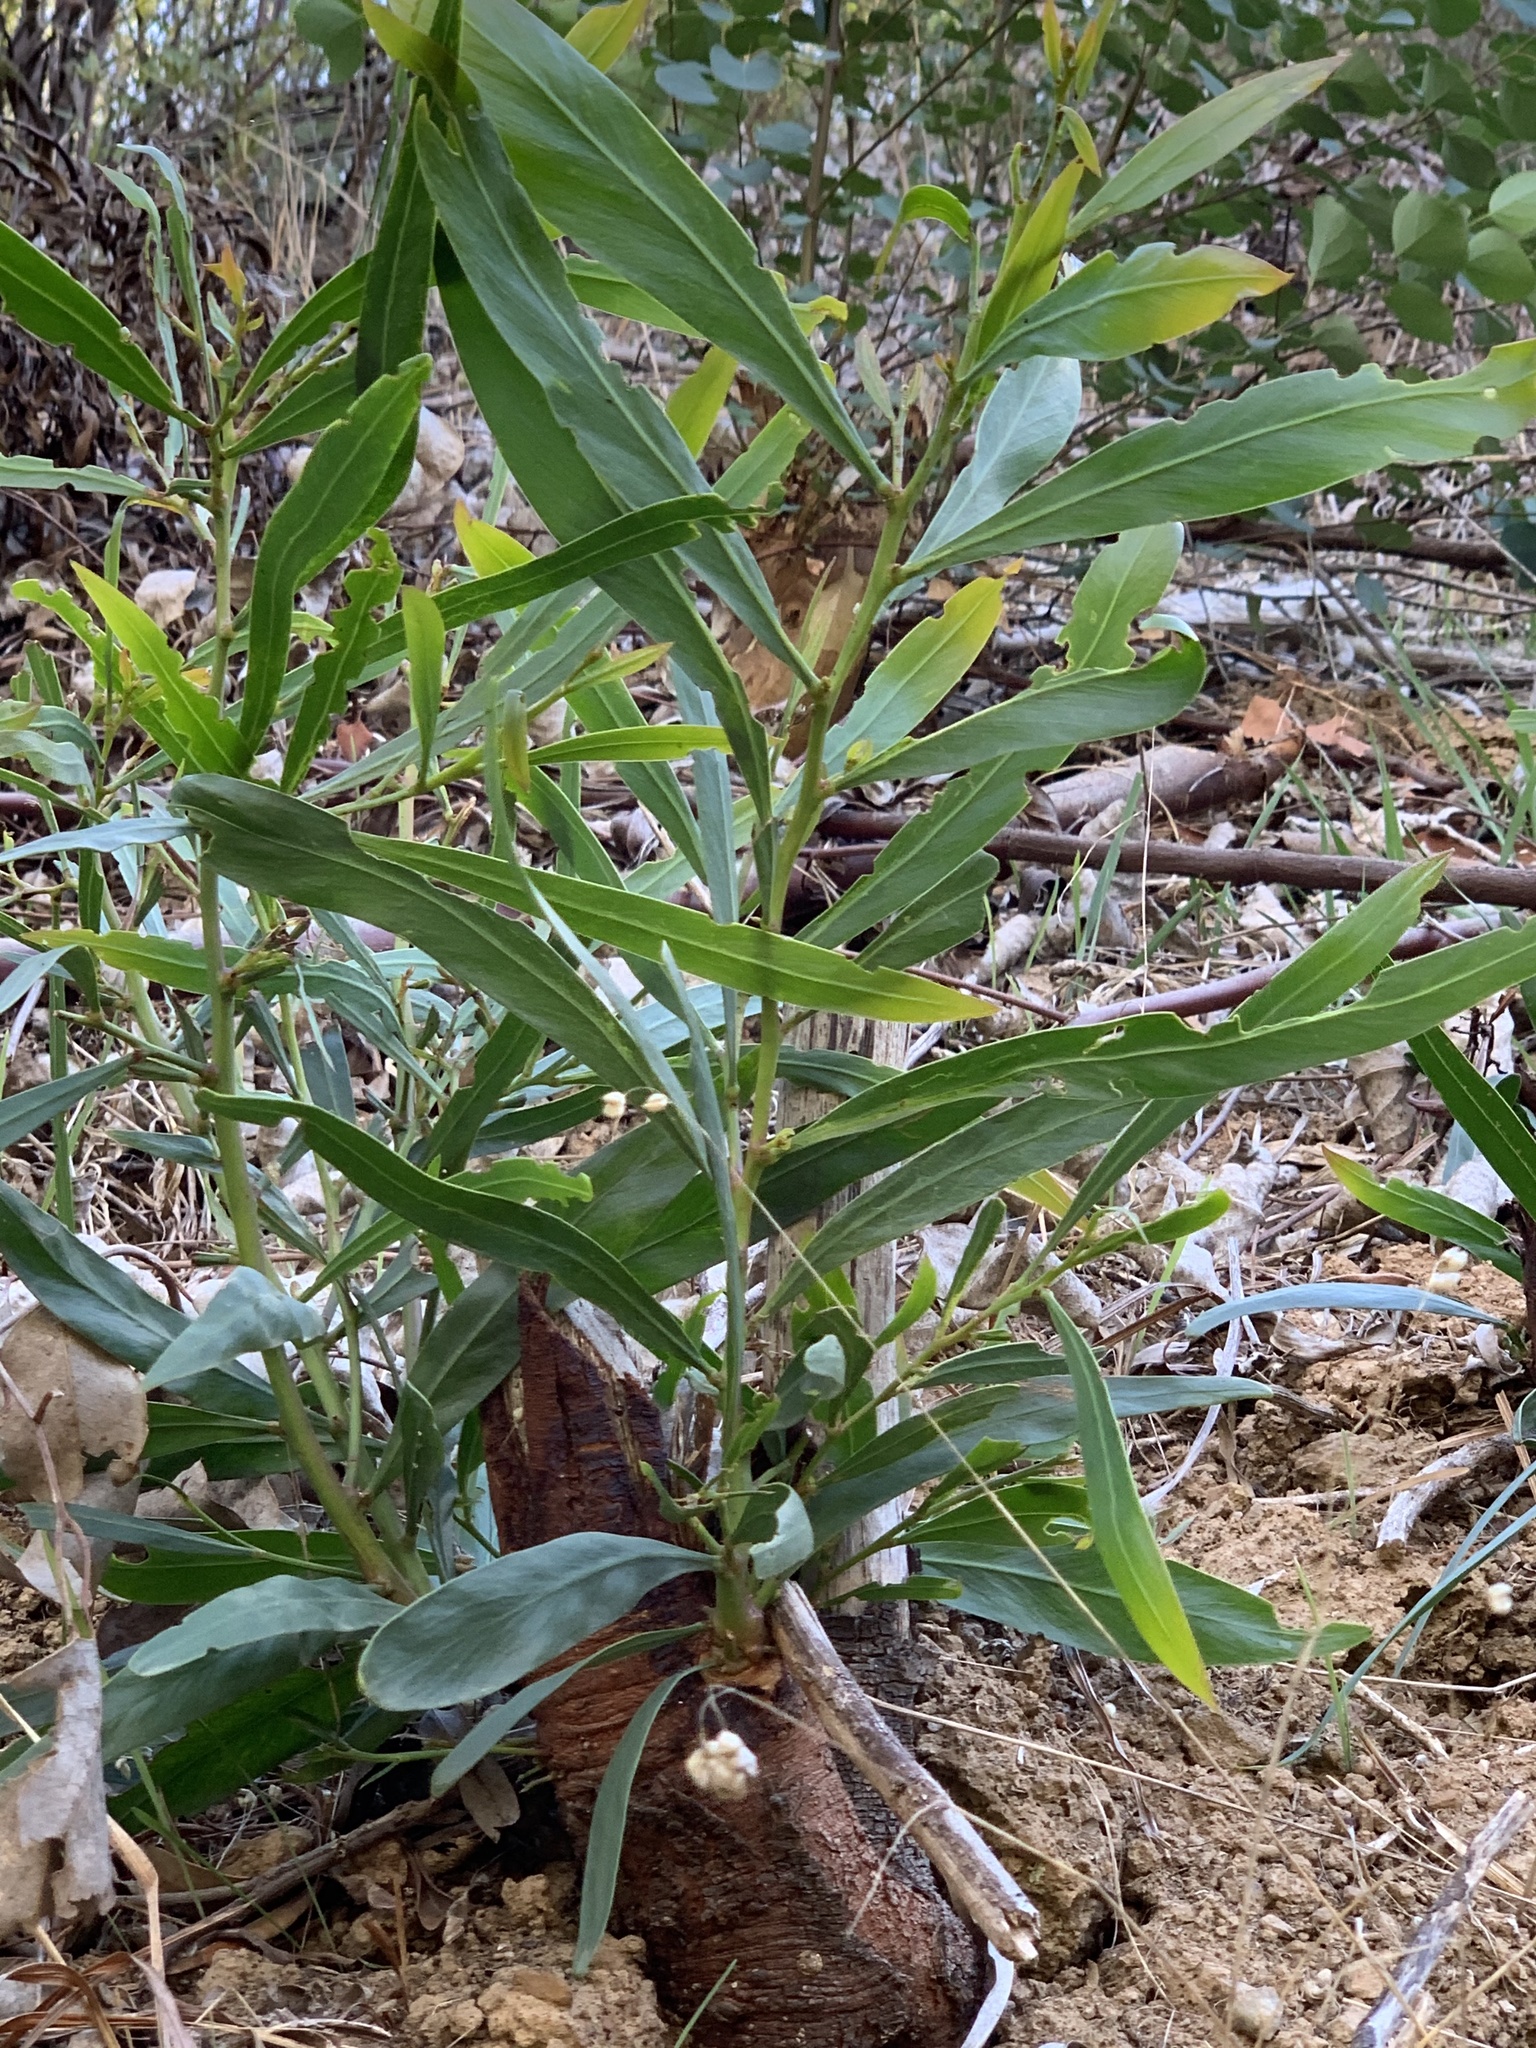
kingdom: Plantae
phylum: Tracheophyta
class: Magnoliopsida
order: Fabales
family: Fabaceae
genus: Acacia
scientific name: Acacia saligna
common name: Orange wattle
